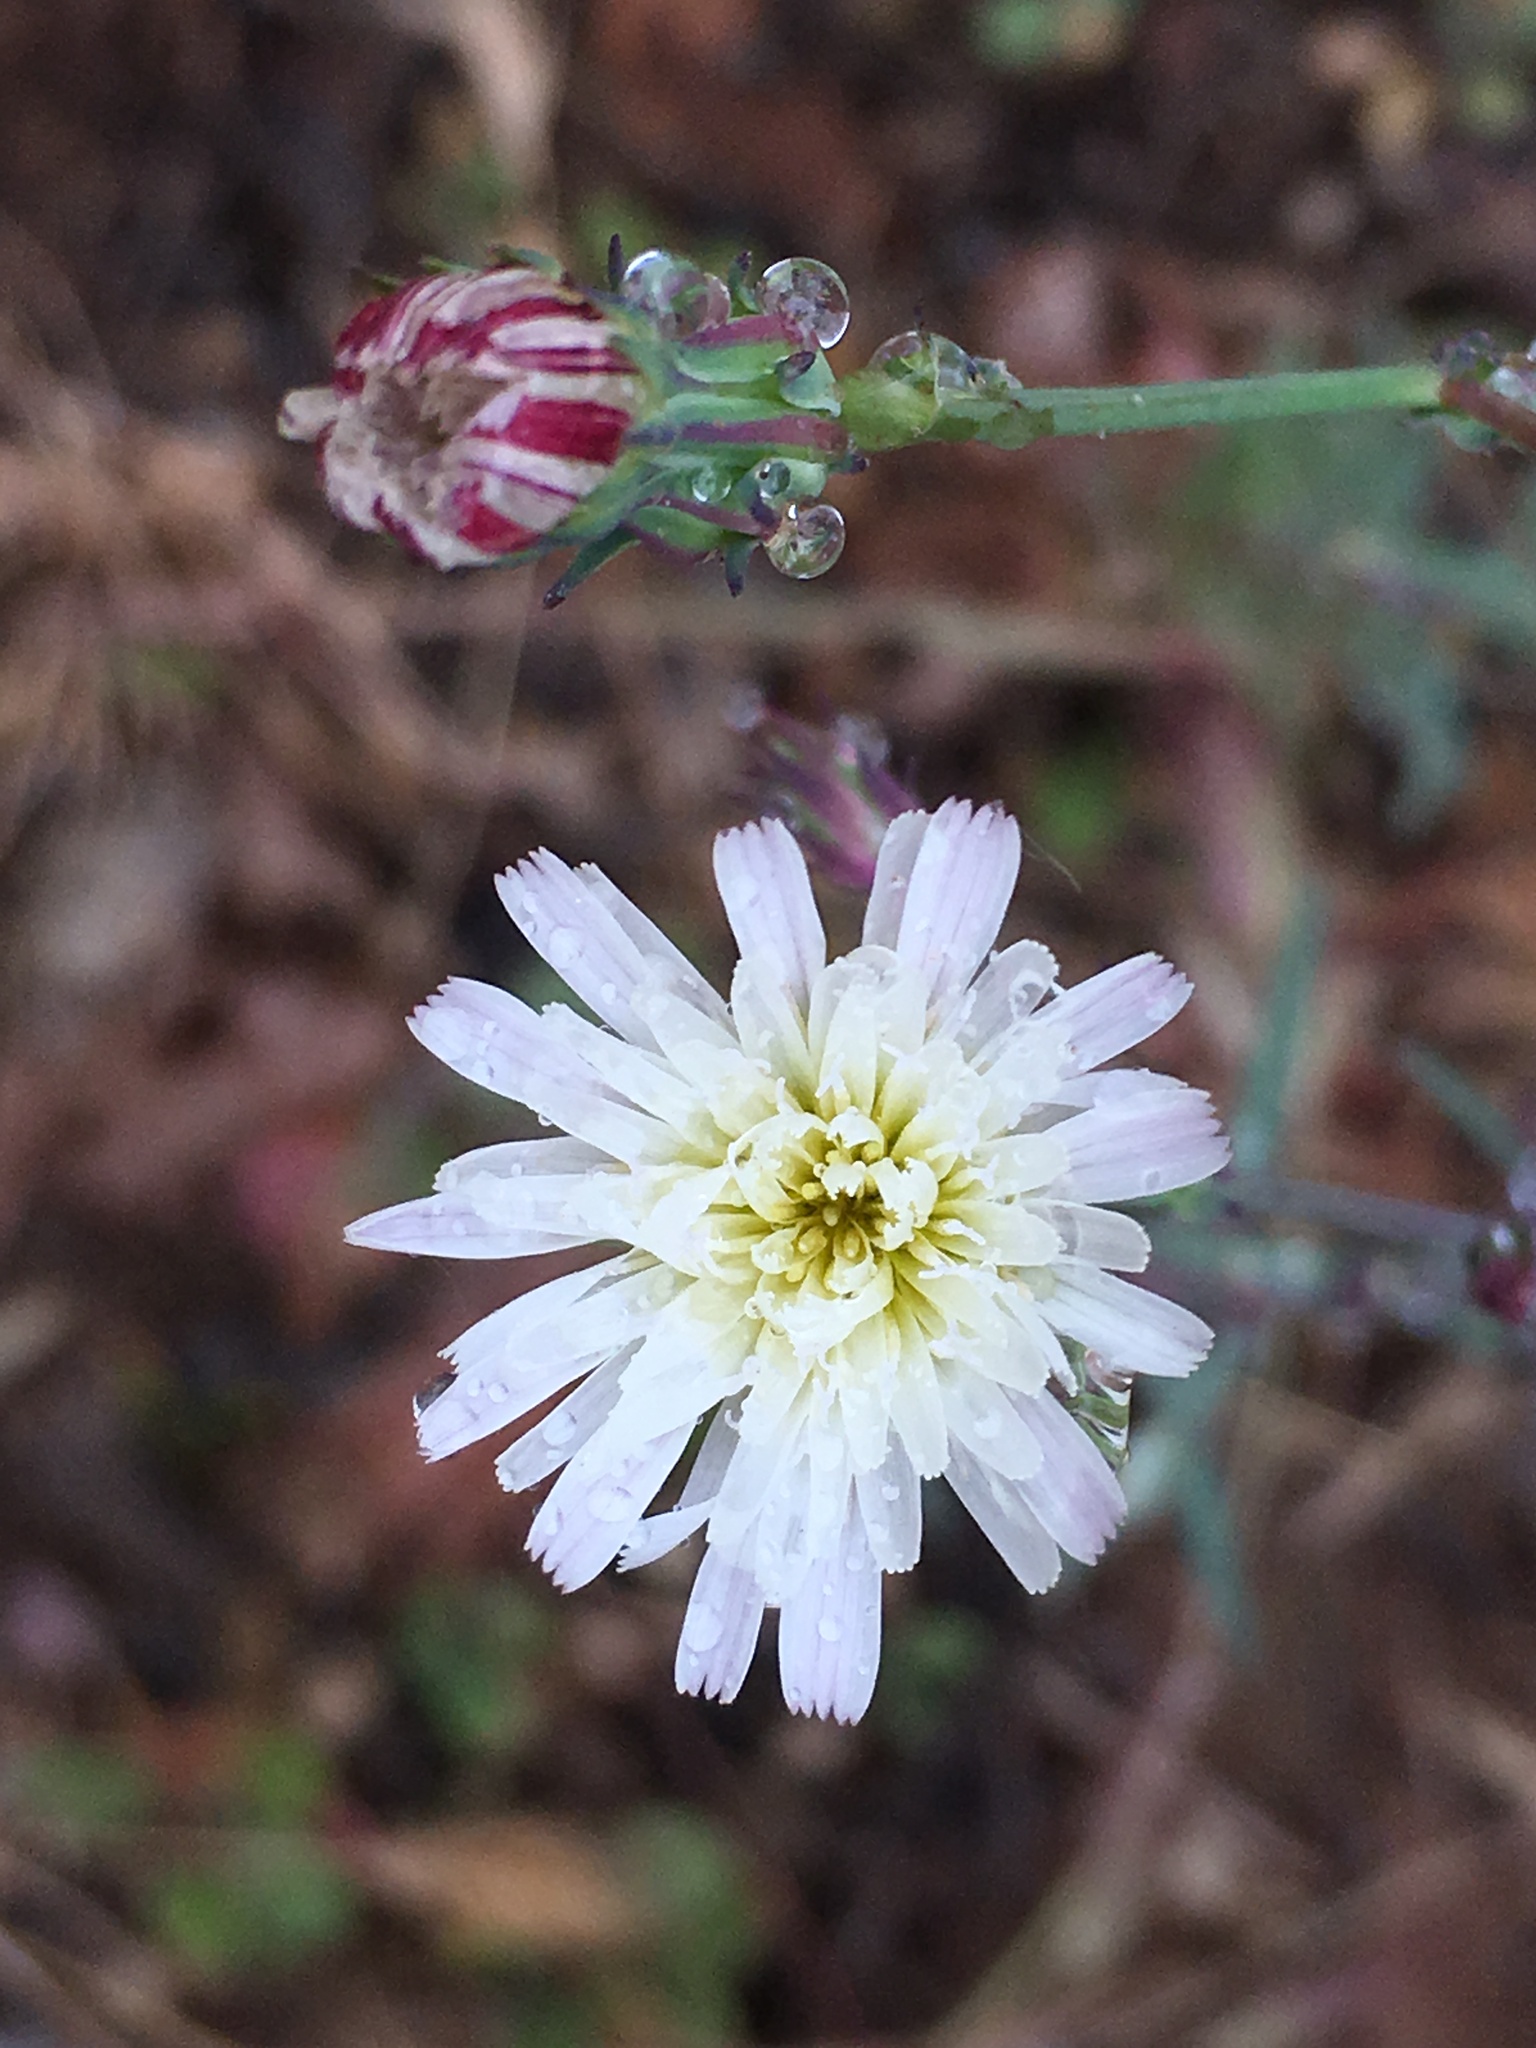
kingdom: Plantae
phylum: Tracheophyta
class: Magnoliopsida
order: Asterales
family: Asteraceae
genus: Rafinesquia
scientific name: Rafinesquia californica
